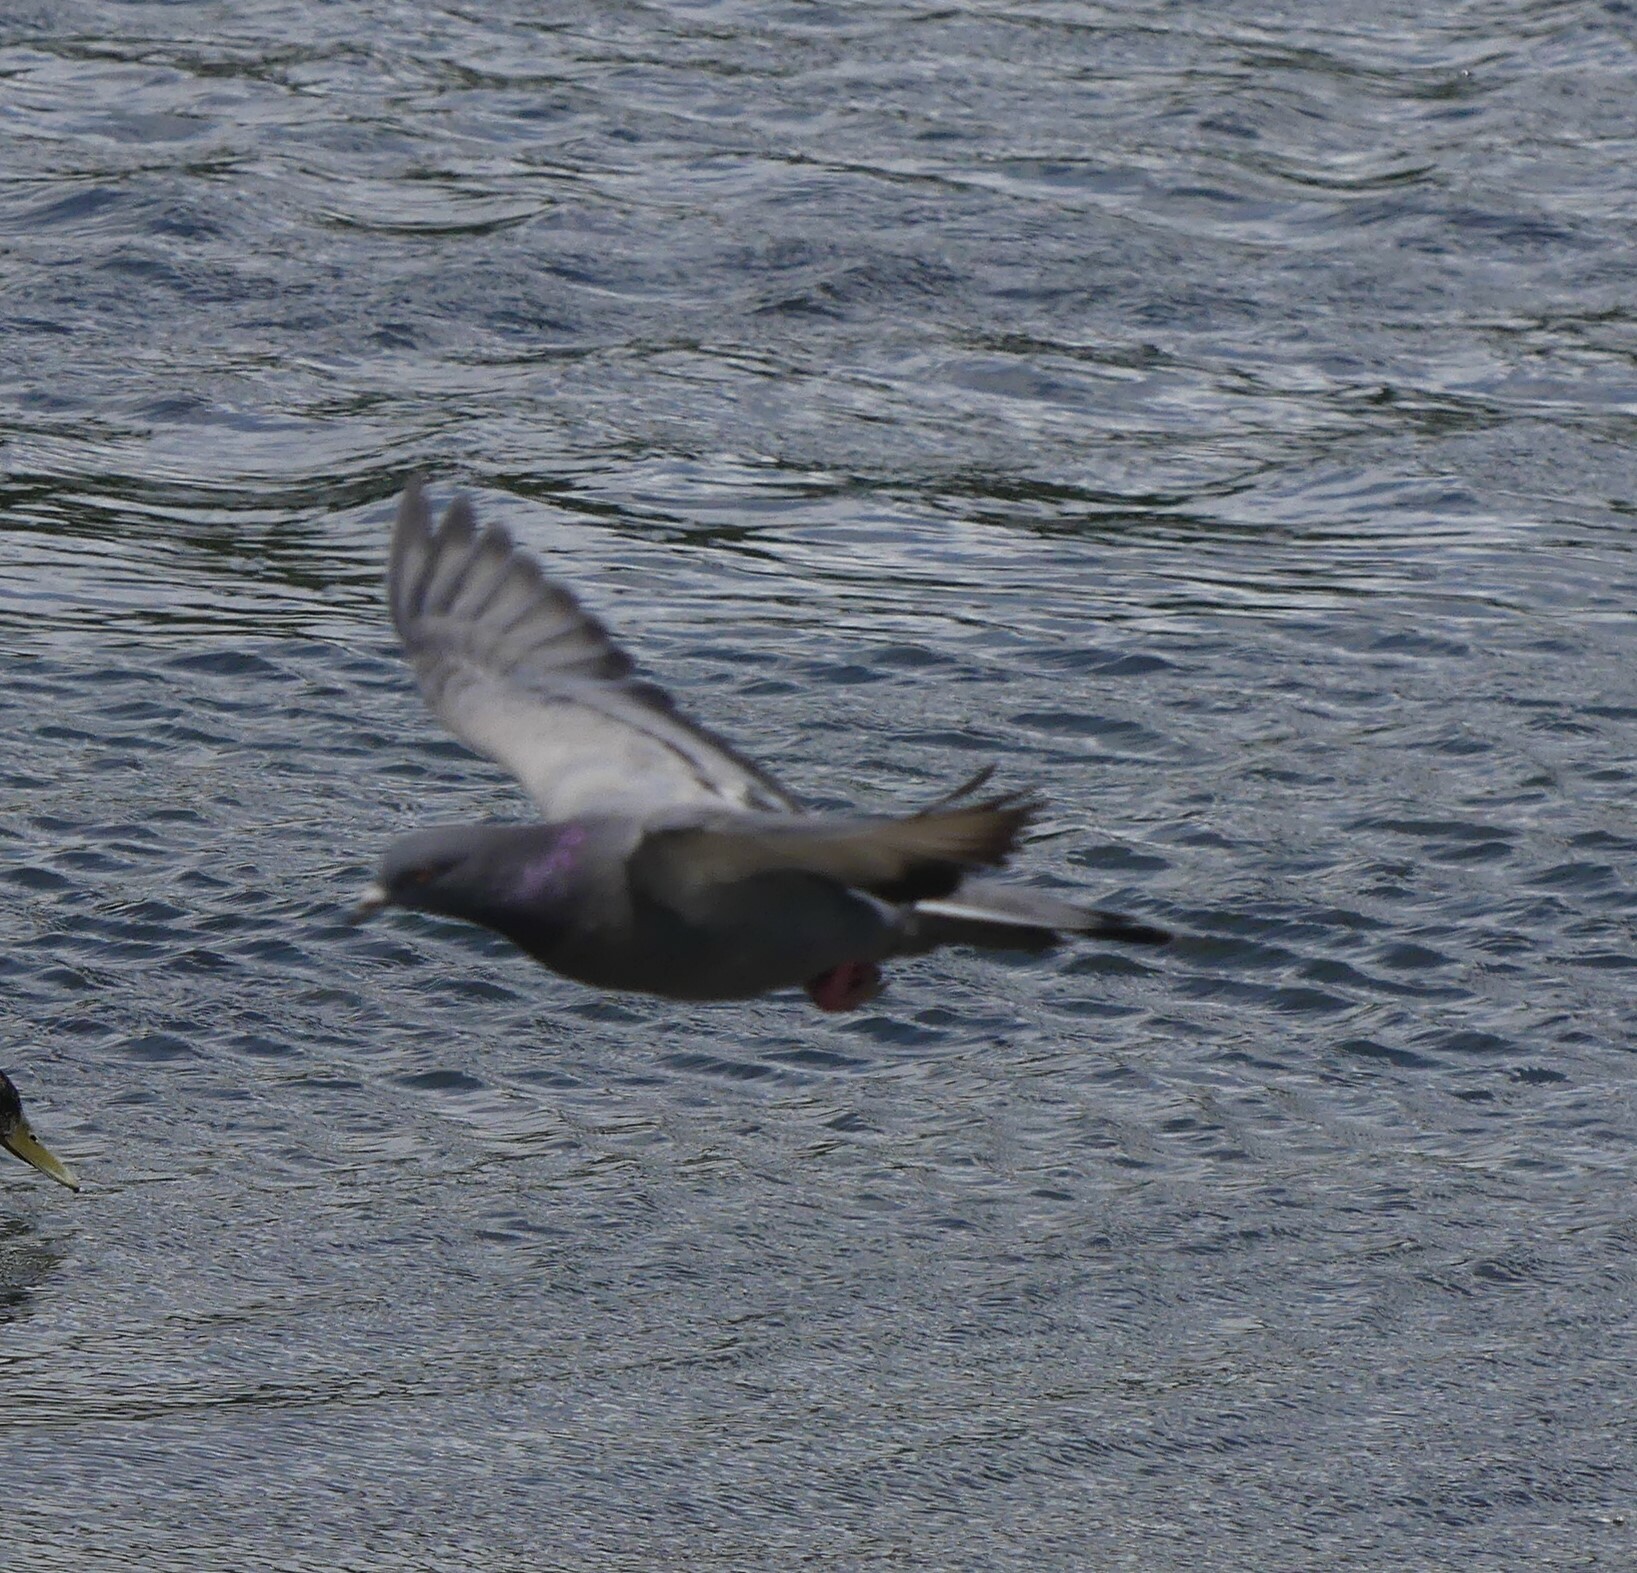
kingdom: Animalia
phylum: Chordata
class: Aves
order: Columbiformes
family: Columbidae
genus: Columba
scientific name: Columba livia
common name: Rock pigeon
